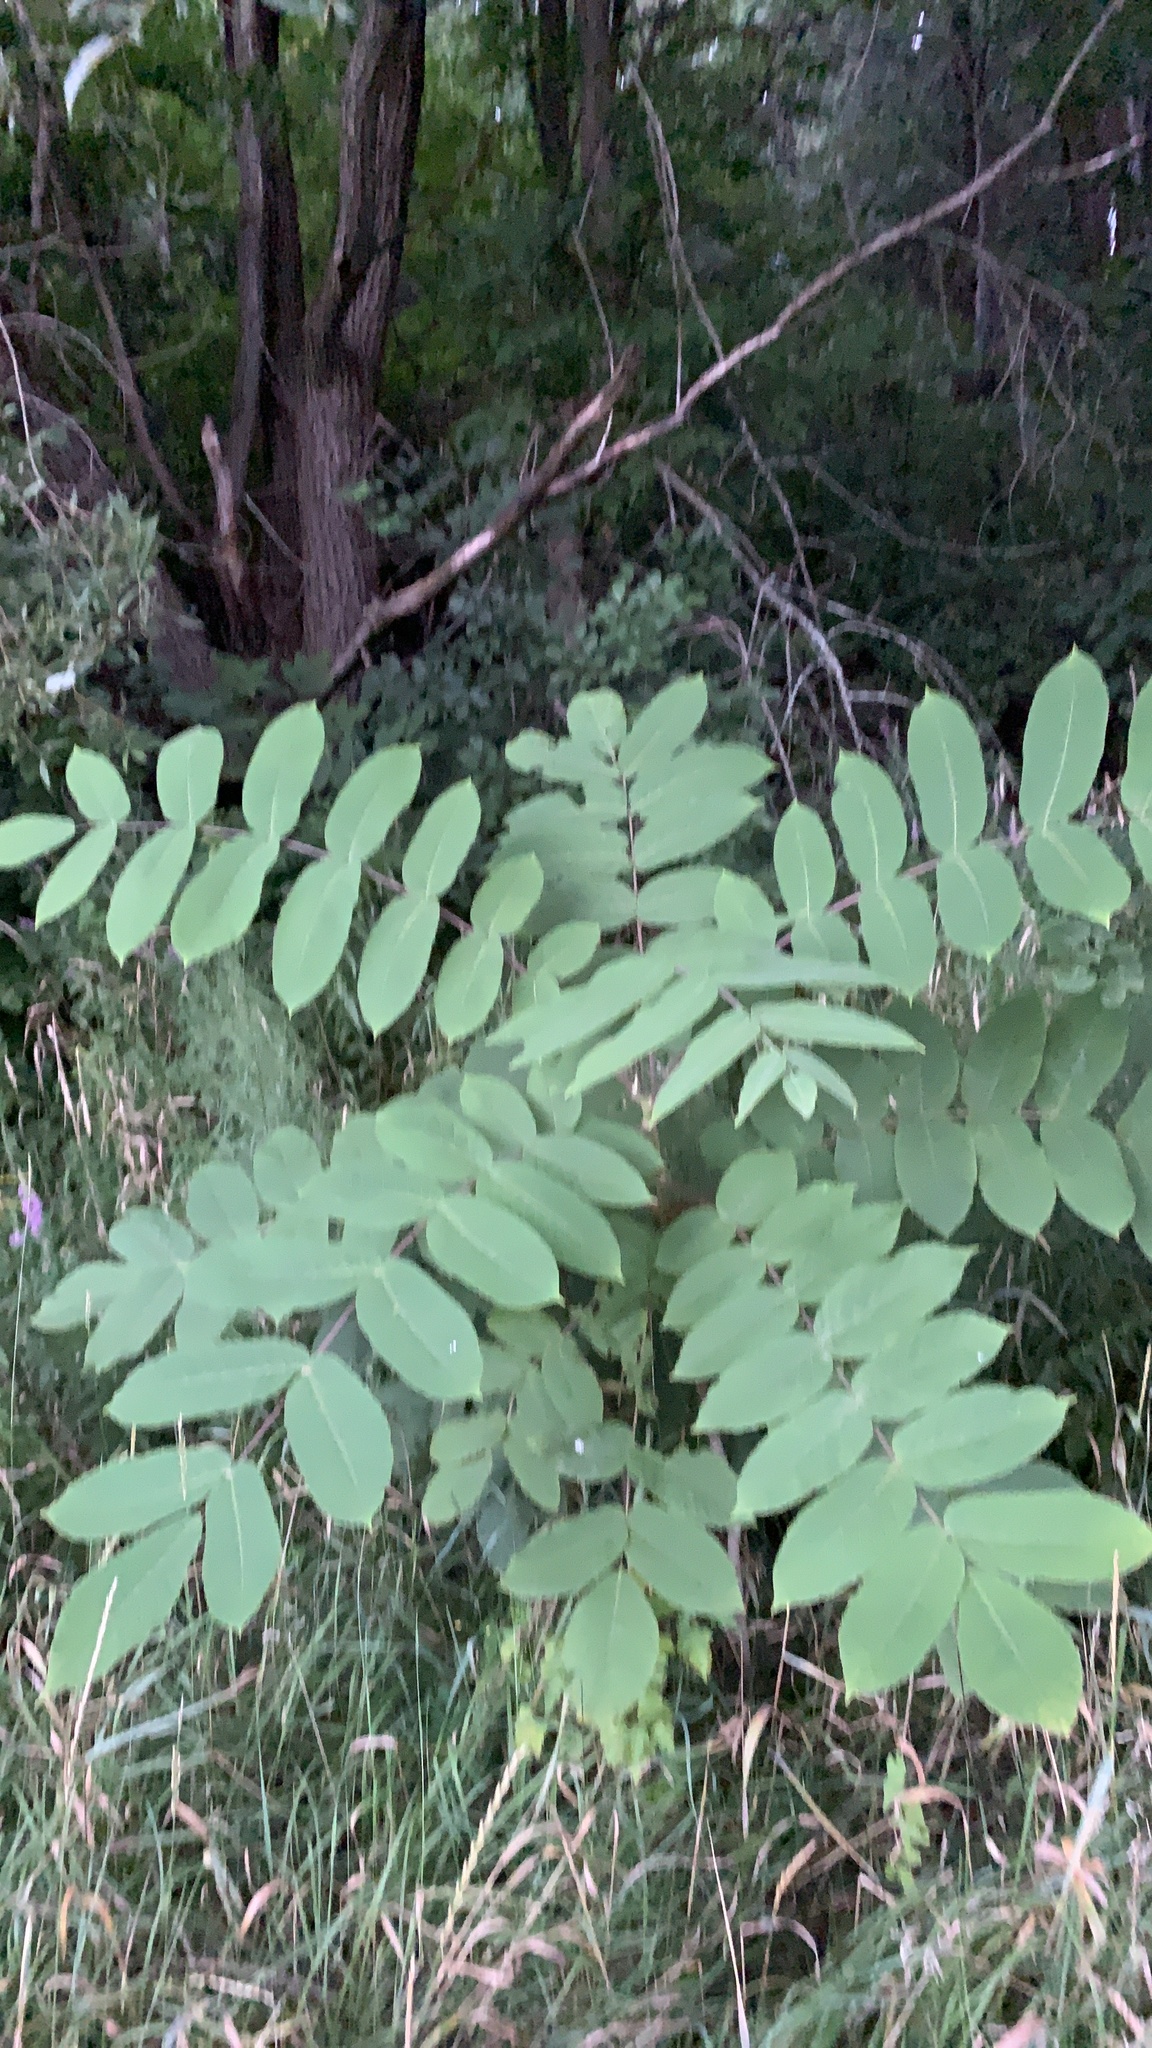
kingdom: Plantae
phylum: Tracheophyta
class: Magnoliopsida
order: Fagales
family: Juglandaceae
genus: Juglans
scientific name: Juglans cinerea
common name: Butternut
